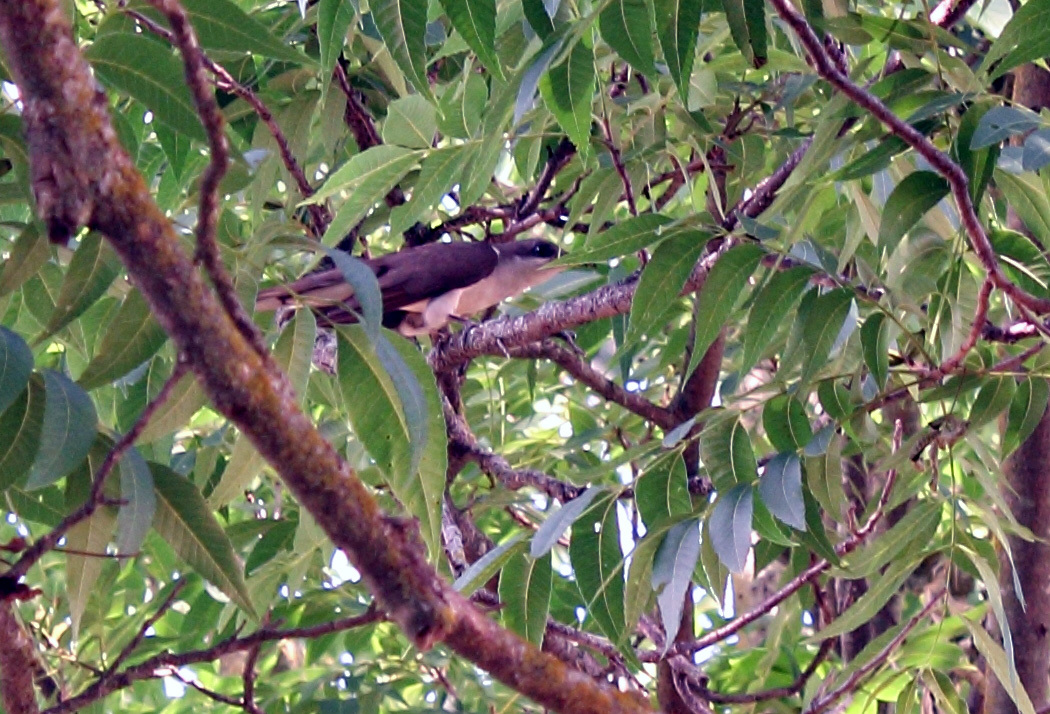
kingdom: Animalia
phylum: Chordata
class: Aves
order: Cuculiformes
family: Cuculidae
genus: Coccyzus
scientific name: Coccyzus americanus
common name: Yellow-billed cuckoo
